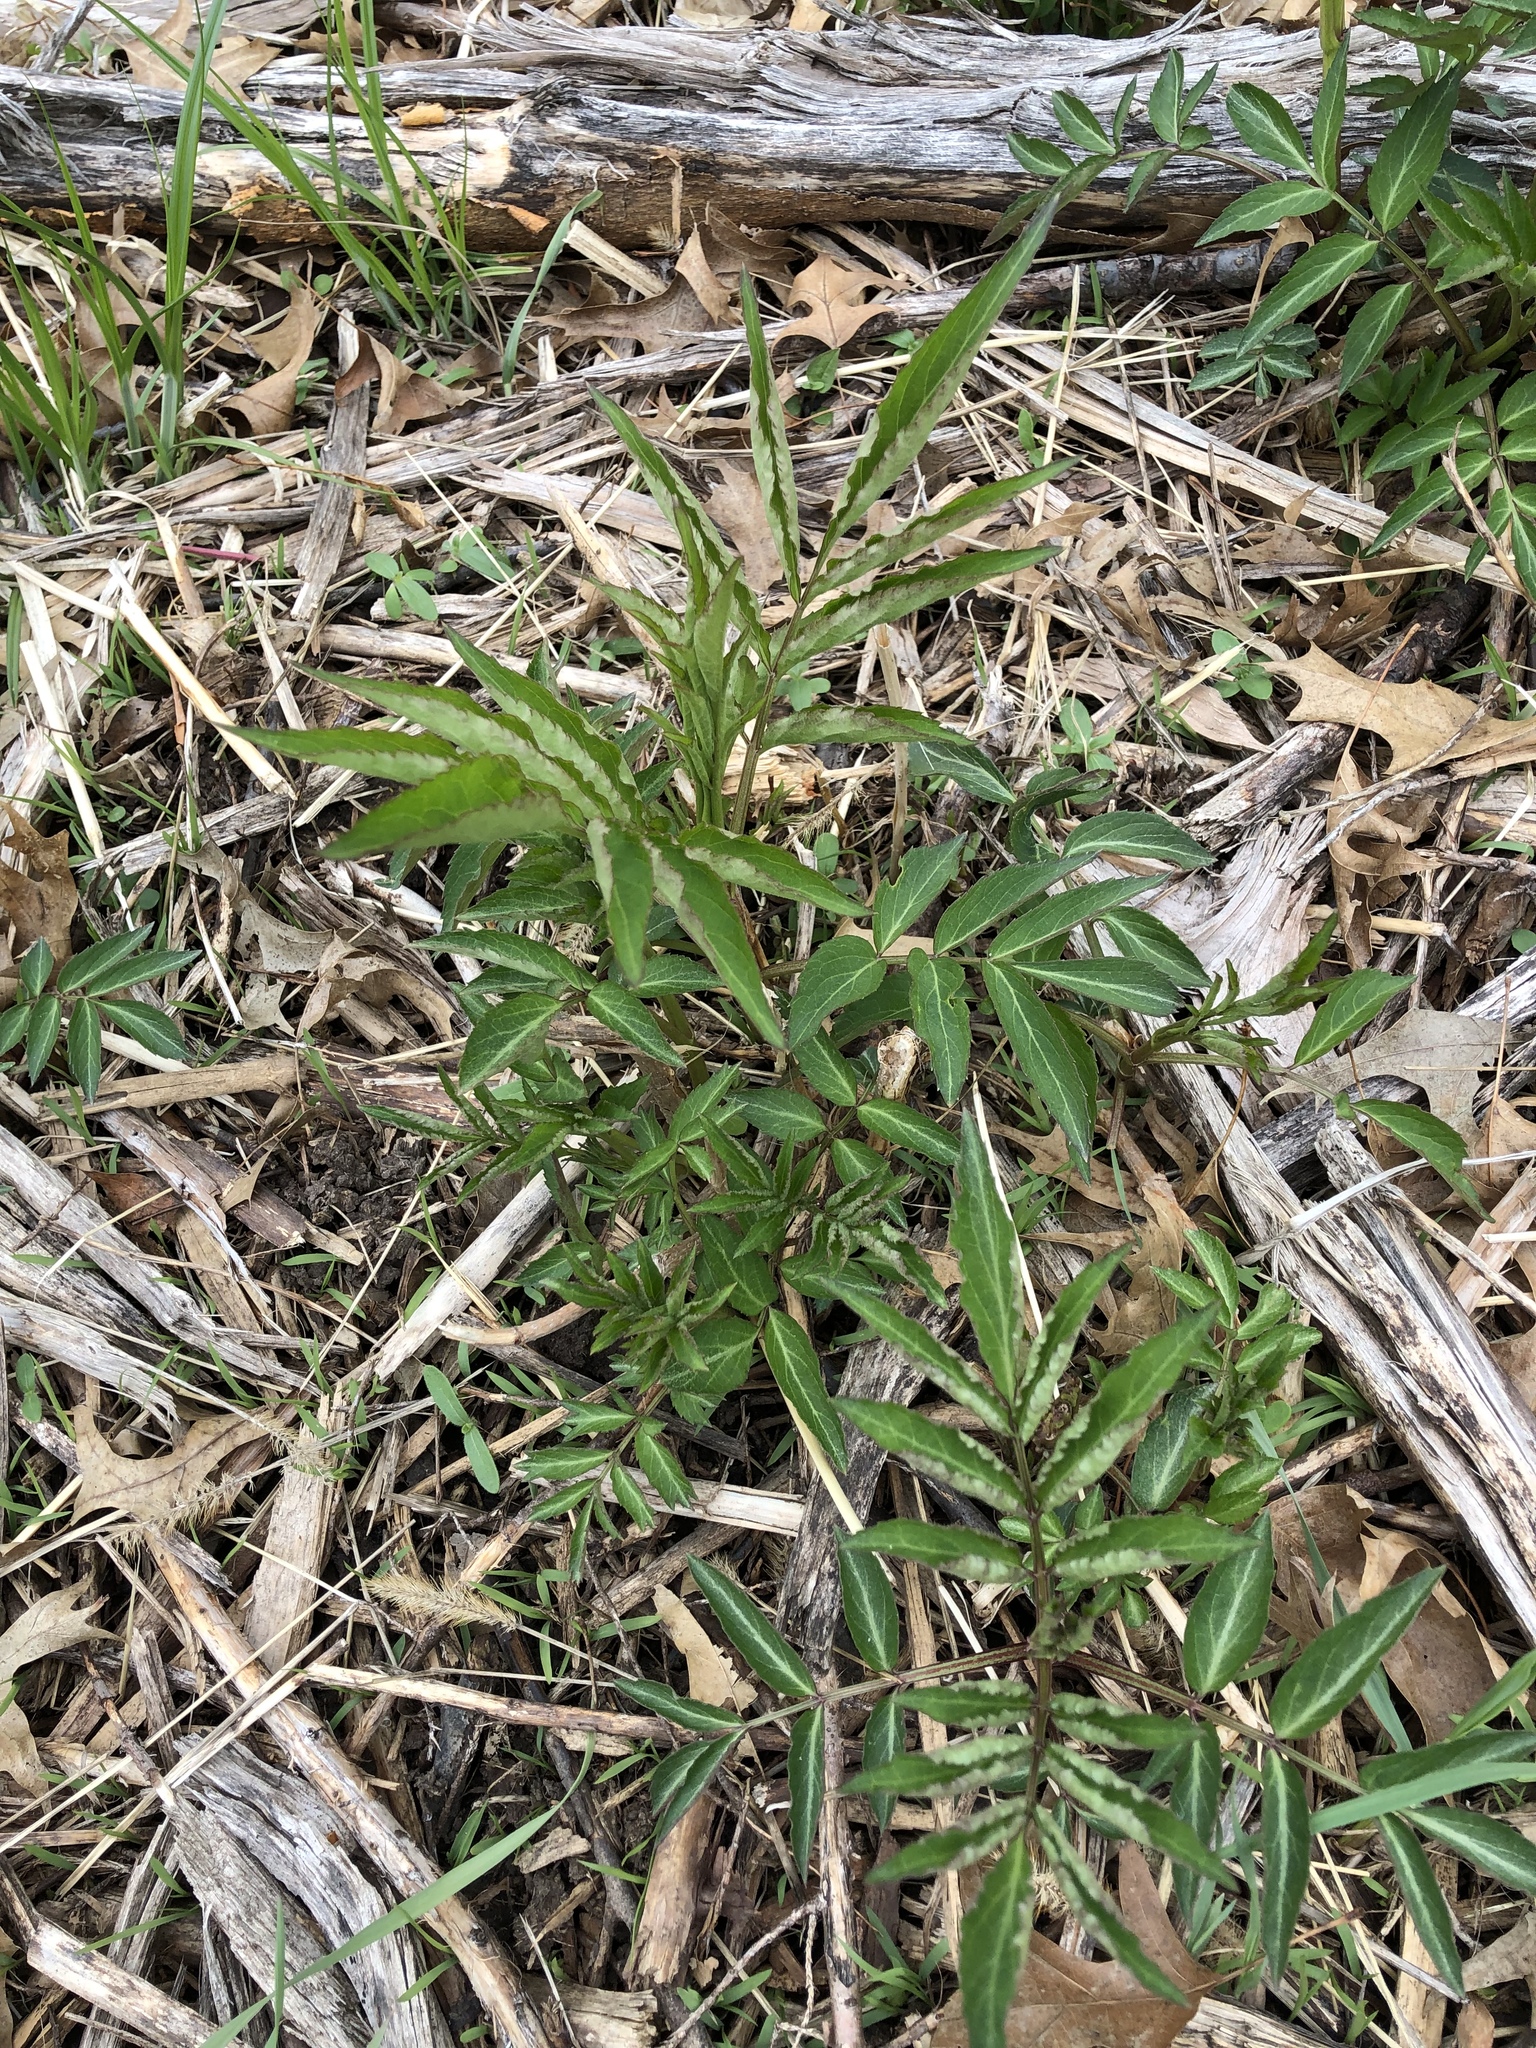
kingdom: Plantae
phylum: Tracheophyta
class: Magnoliopsida
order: Dipsacales
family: Viburnaceae
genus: Sambucus
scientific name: Sambucus canadensis
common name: American elder
